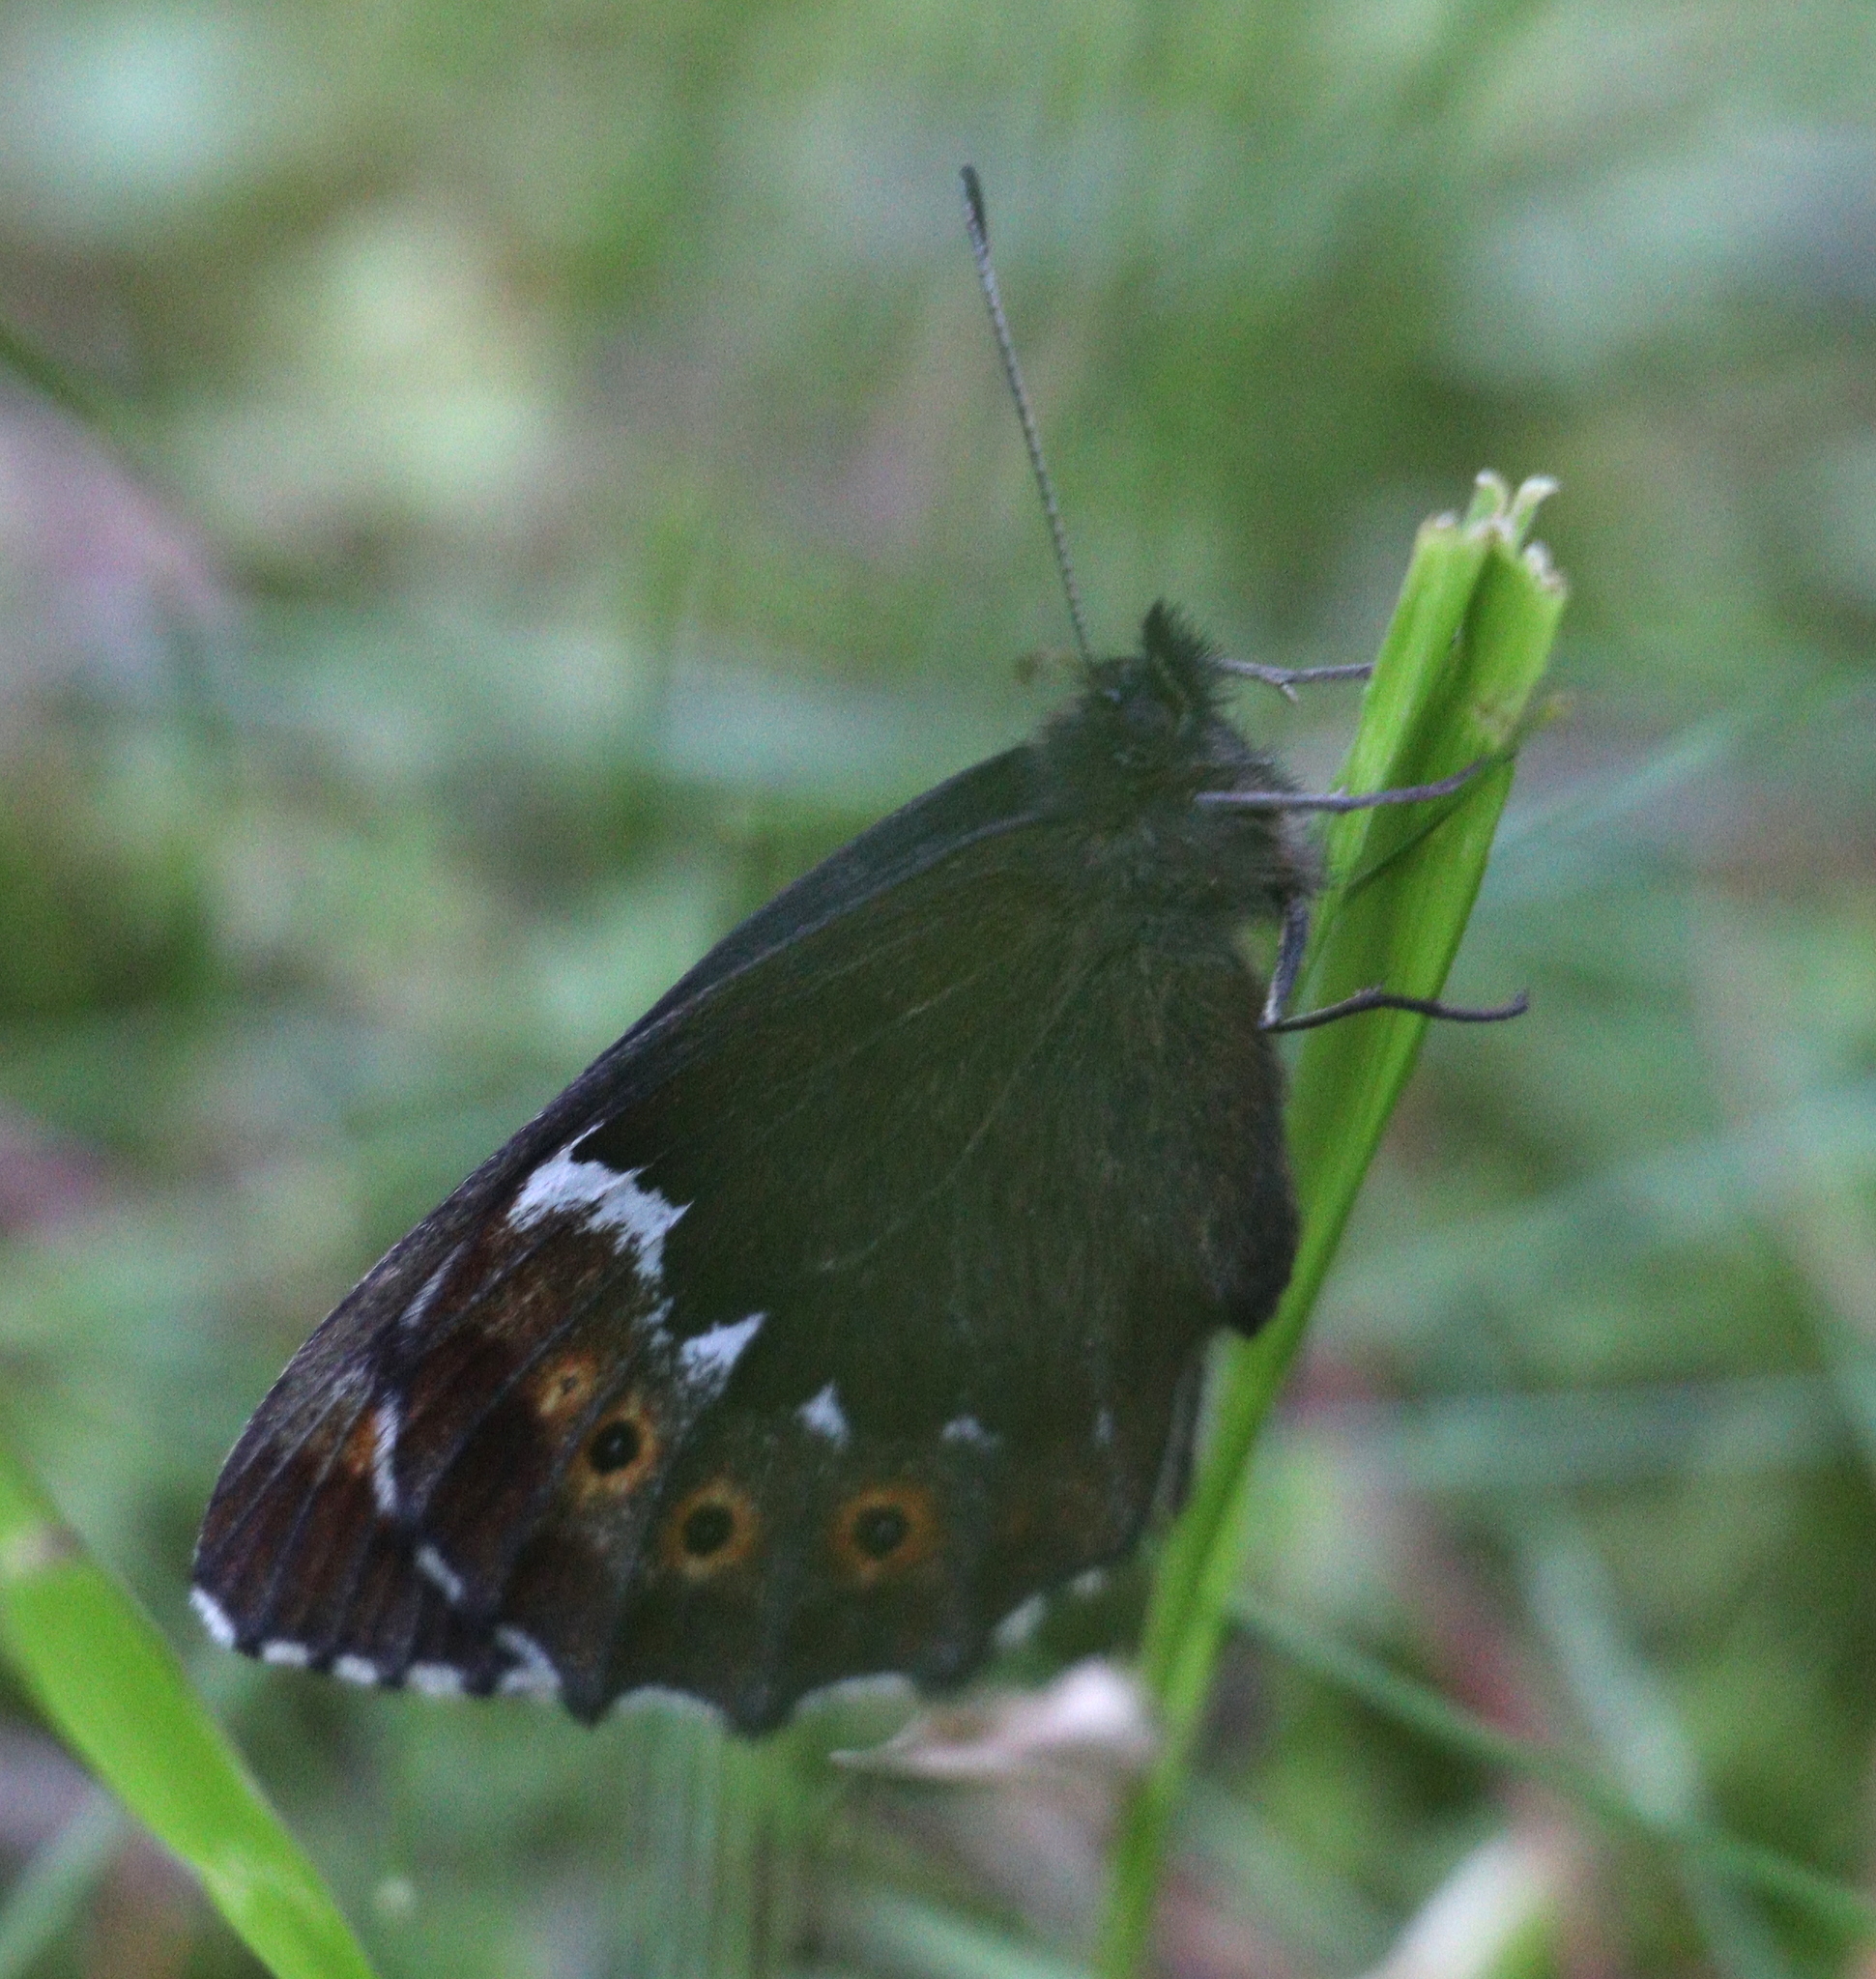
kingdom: Animalia
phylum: Arthropoda
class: Insecta
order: Lepidoptera
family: Nymphalidae
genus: Erebia
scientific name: Erebia ligea
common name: Arran brown
